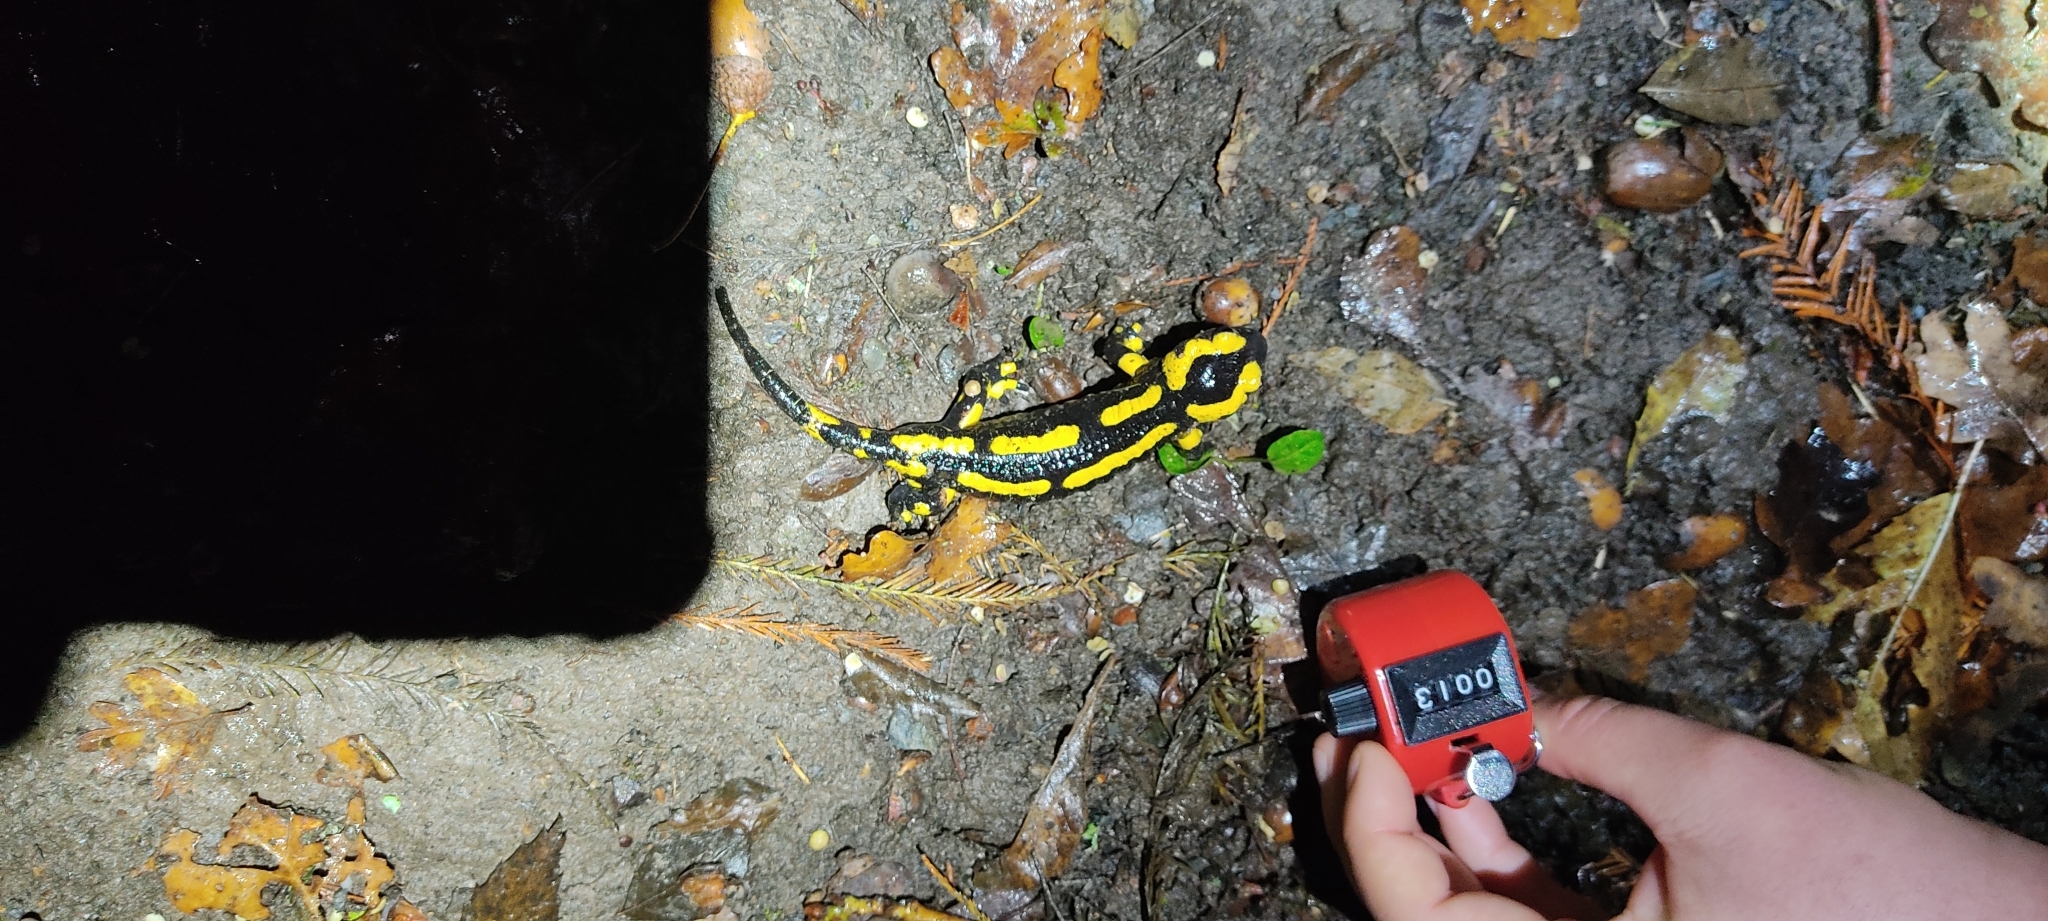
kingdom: Animalia
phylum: Chordata
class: Amphibia
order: Caudata
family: Salamandridae
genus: Salamandra
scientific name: Salamandra salamandra
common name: Fire salamander
